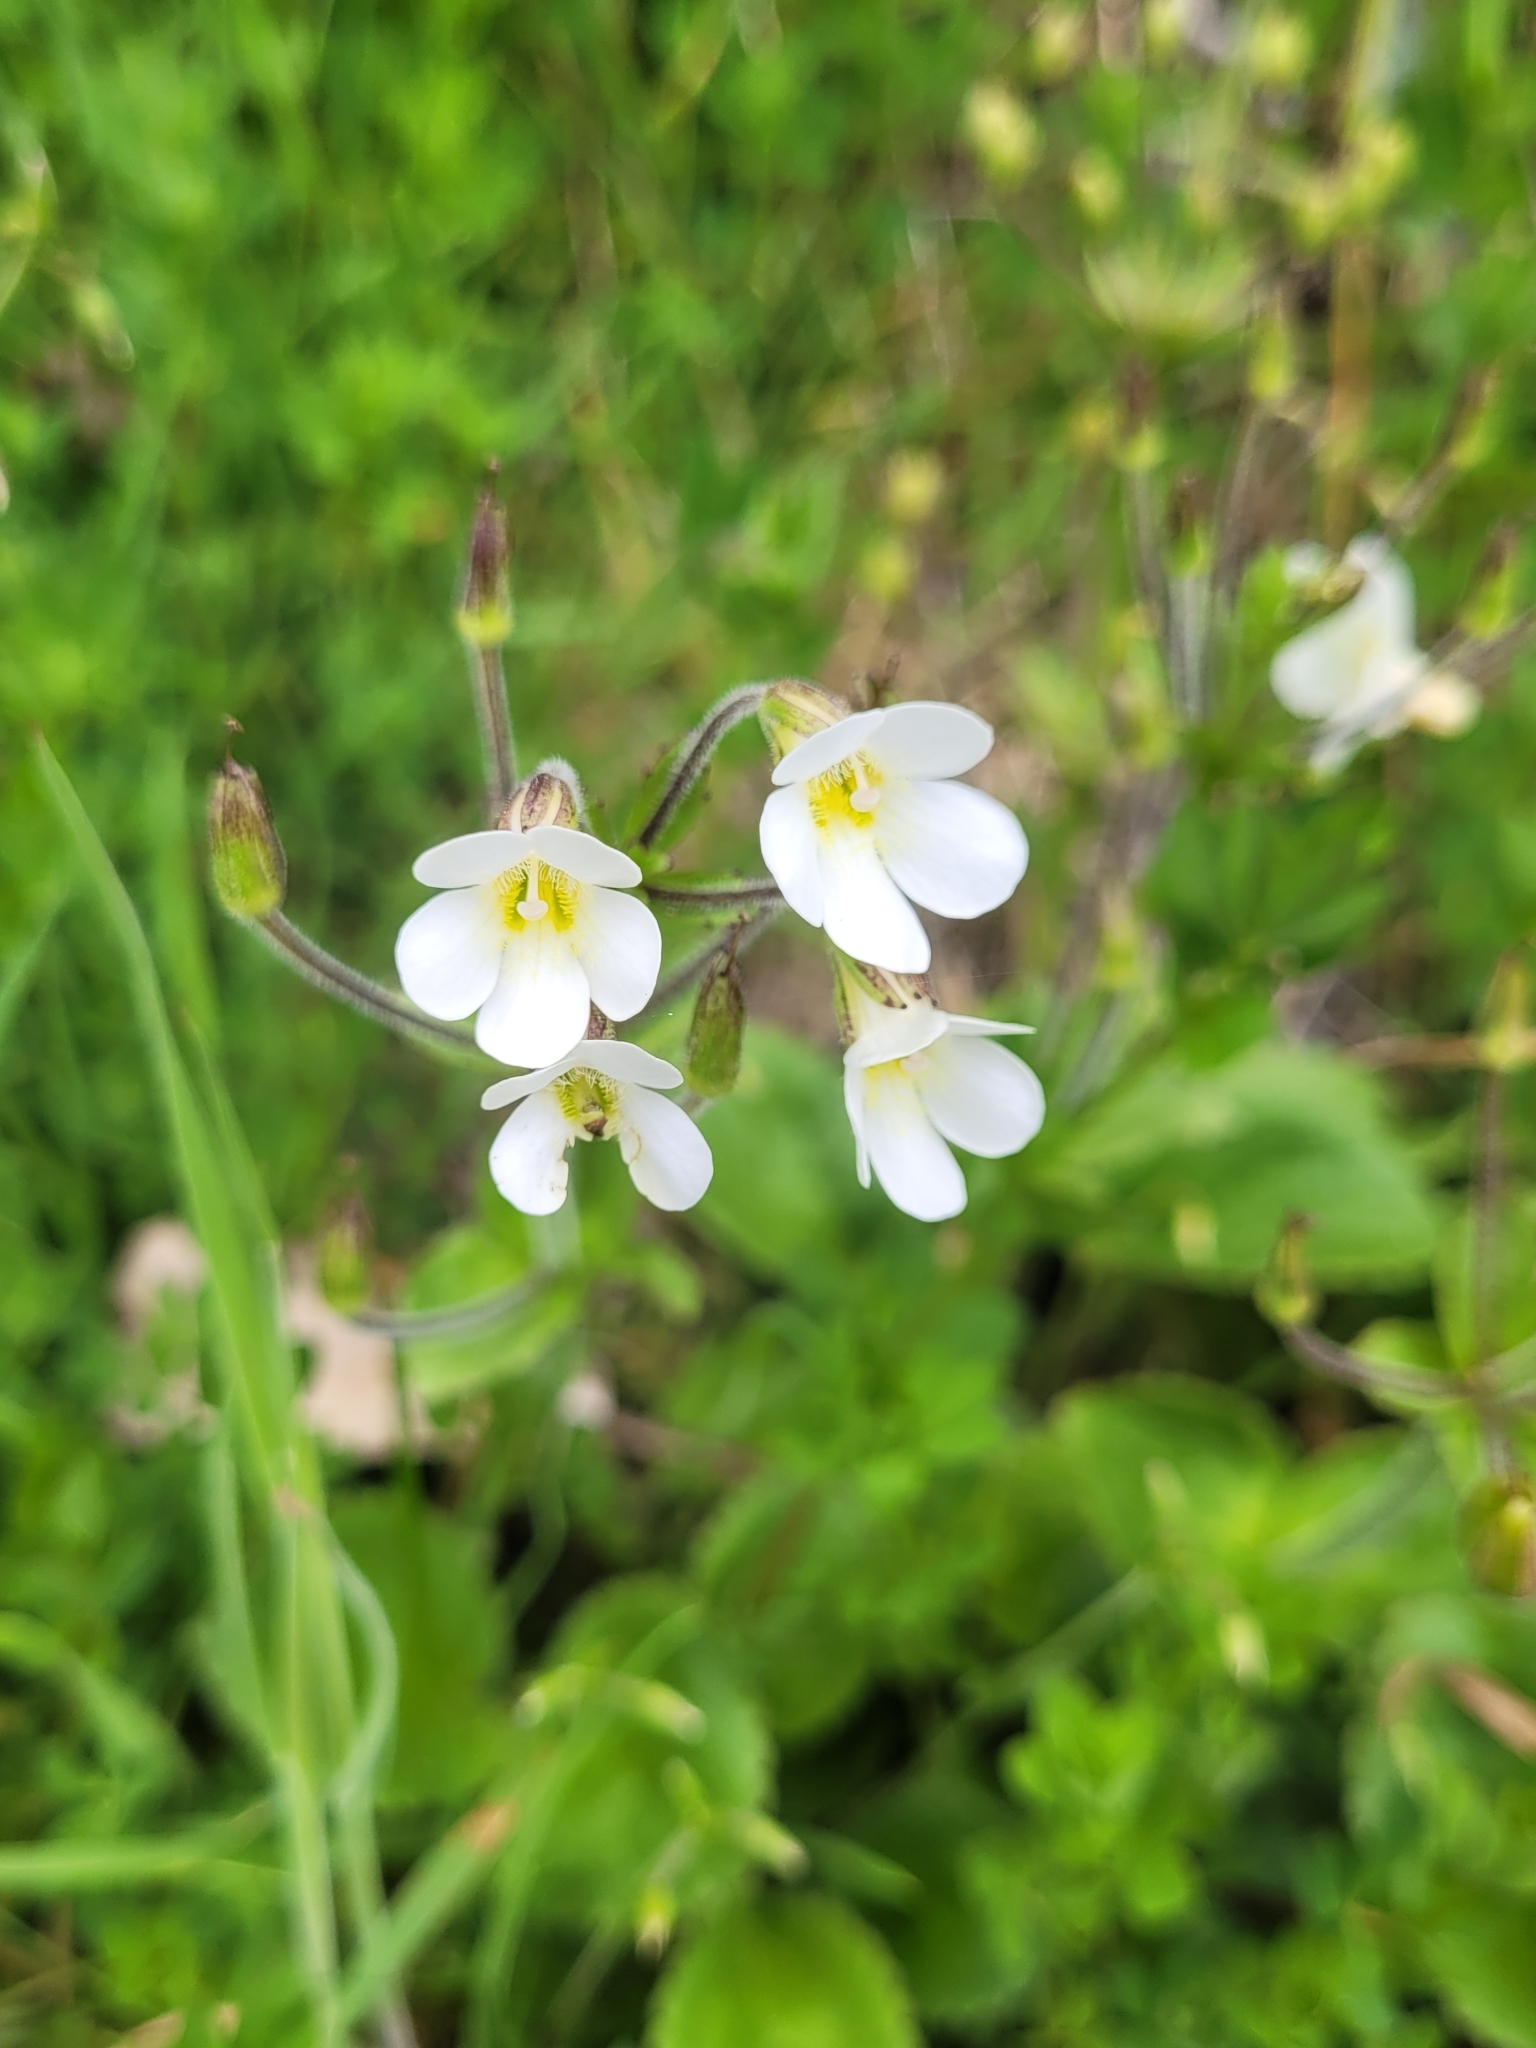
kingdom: Plantae
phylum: Tracheophyta
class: Magnoliopsida
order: Lamiales
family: Plantaginaceae
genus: Ourisia
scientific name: Ourisia macrophylla
